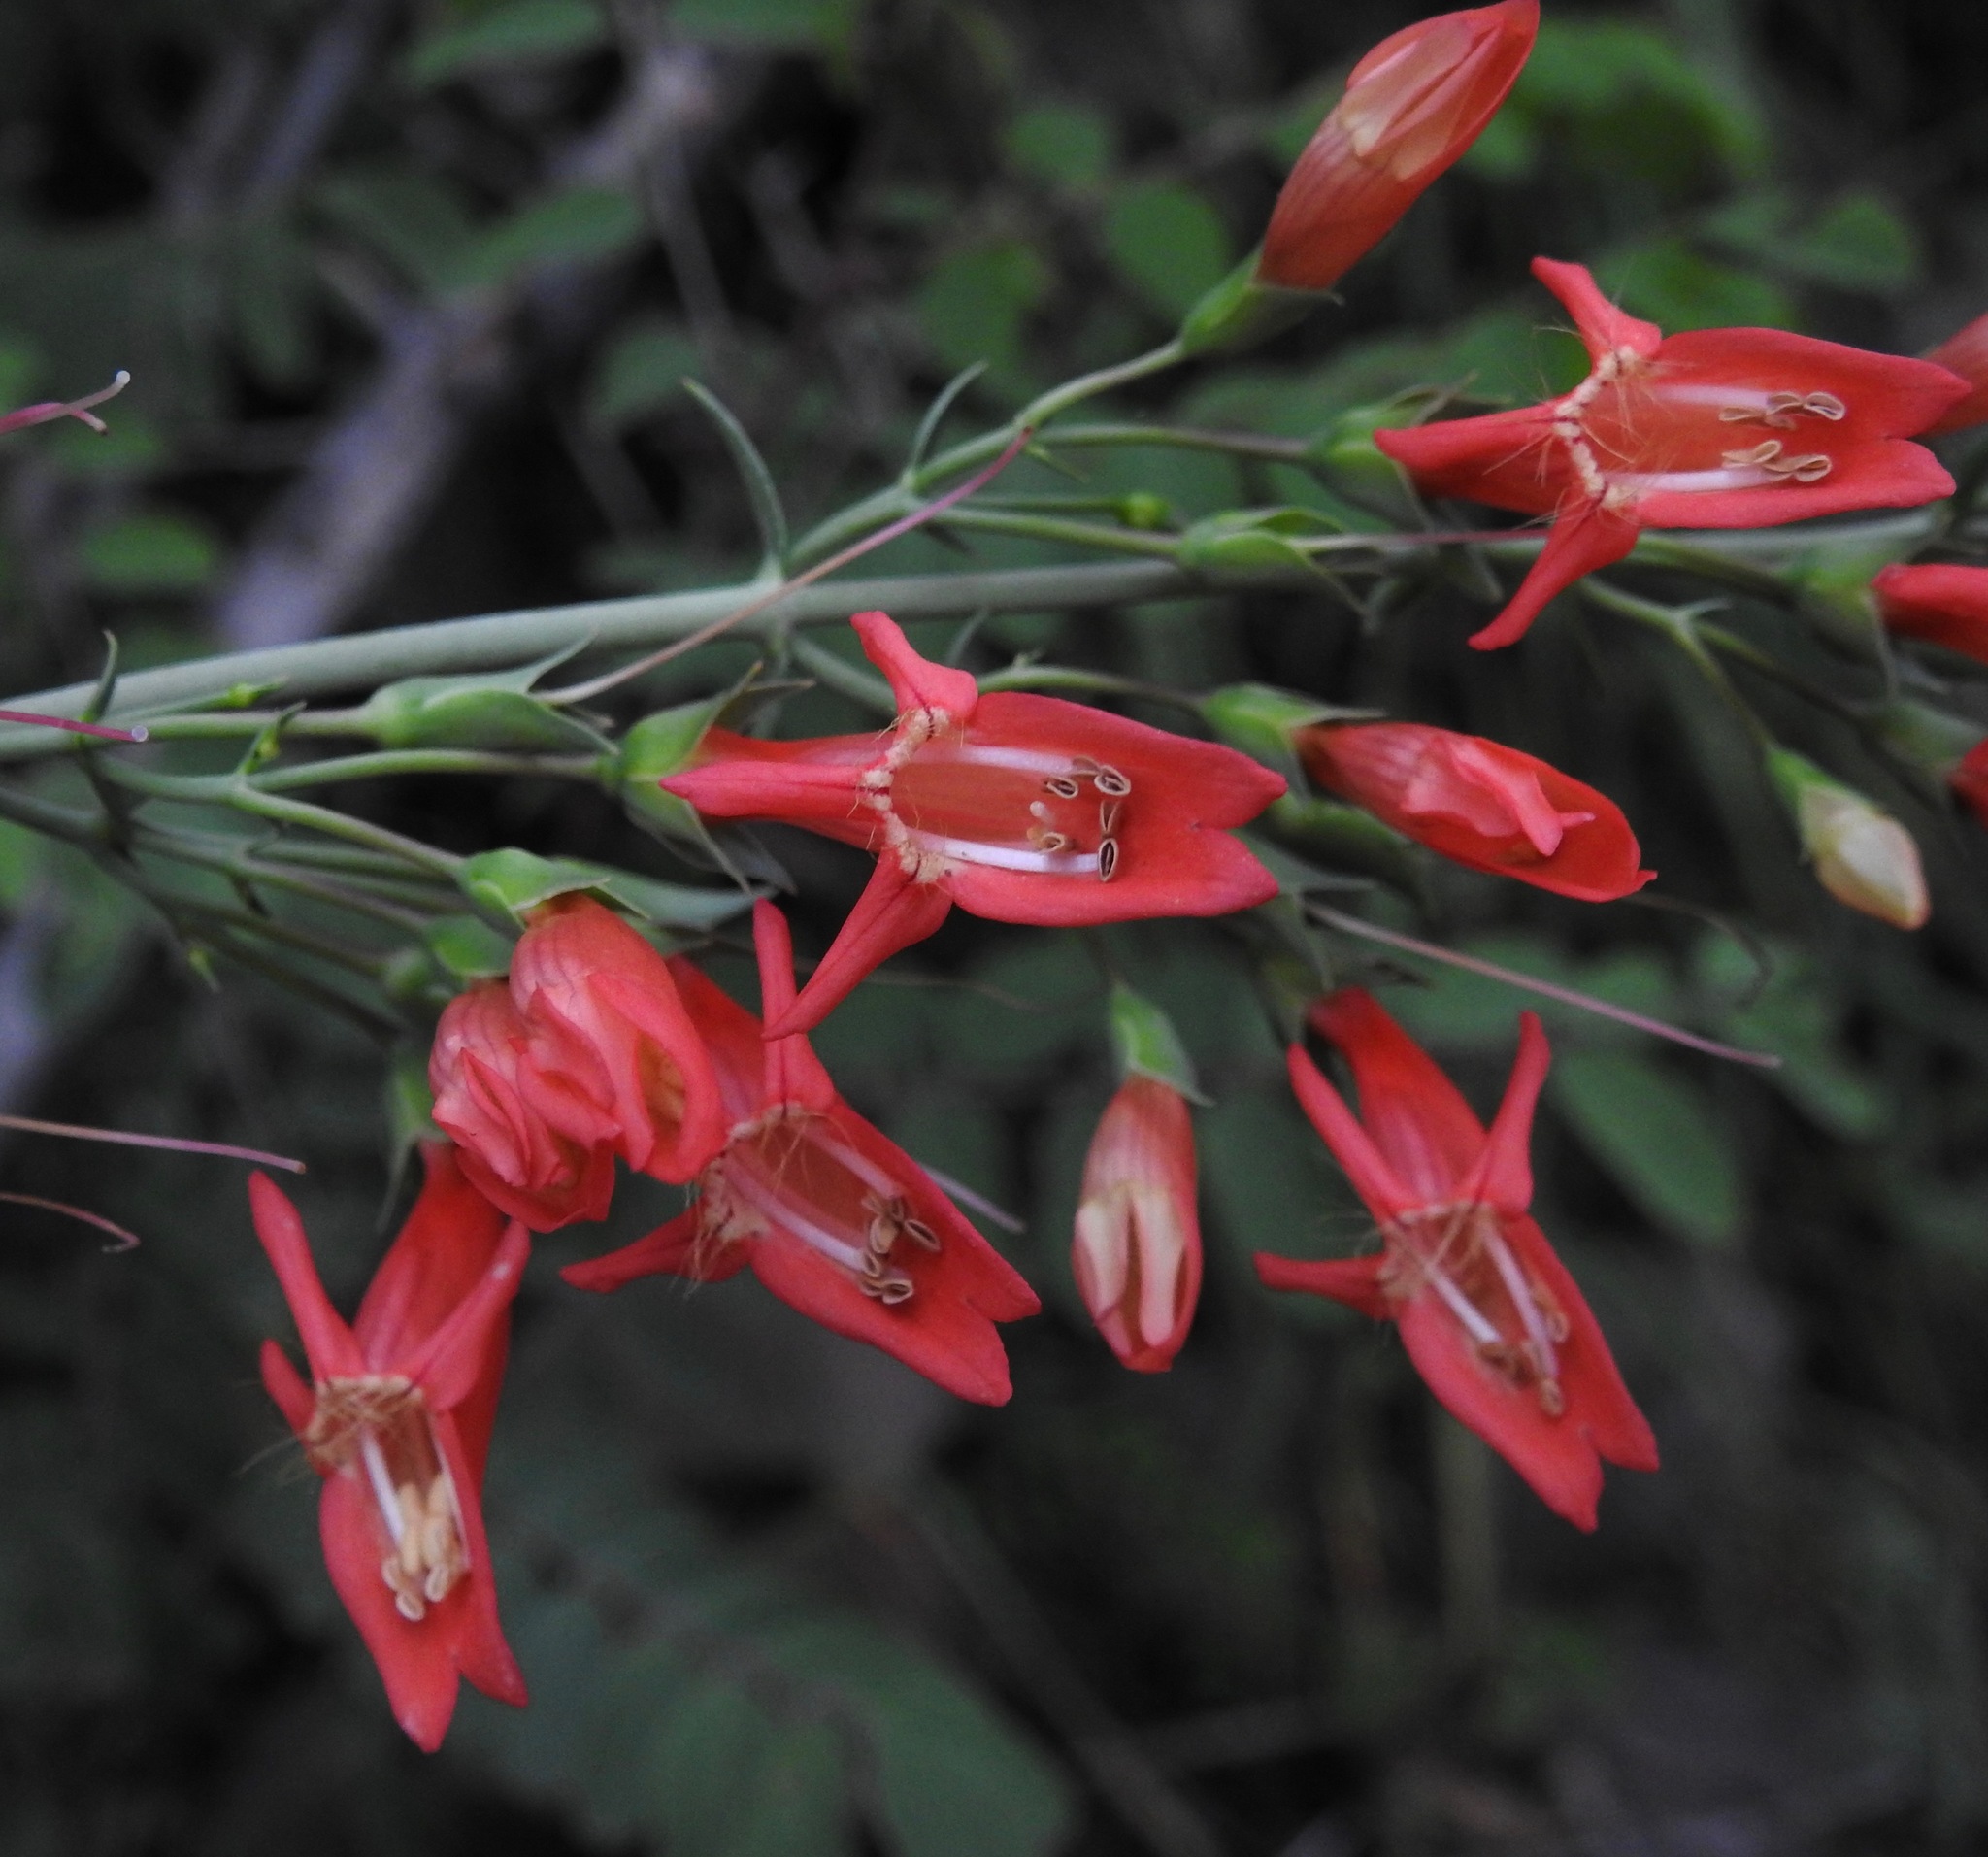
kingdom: Plantae
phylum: Tracheophyta
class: Magnoliopsida
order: Lamiales
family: Plantaginaceae
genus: Penstemon
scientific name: Penstemon barbatus
